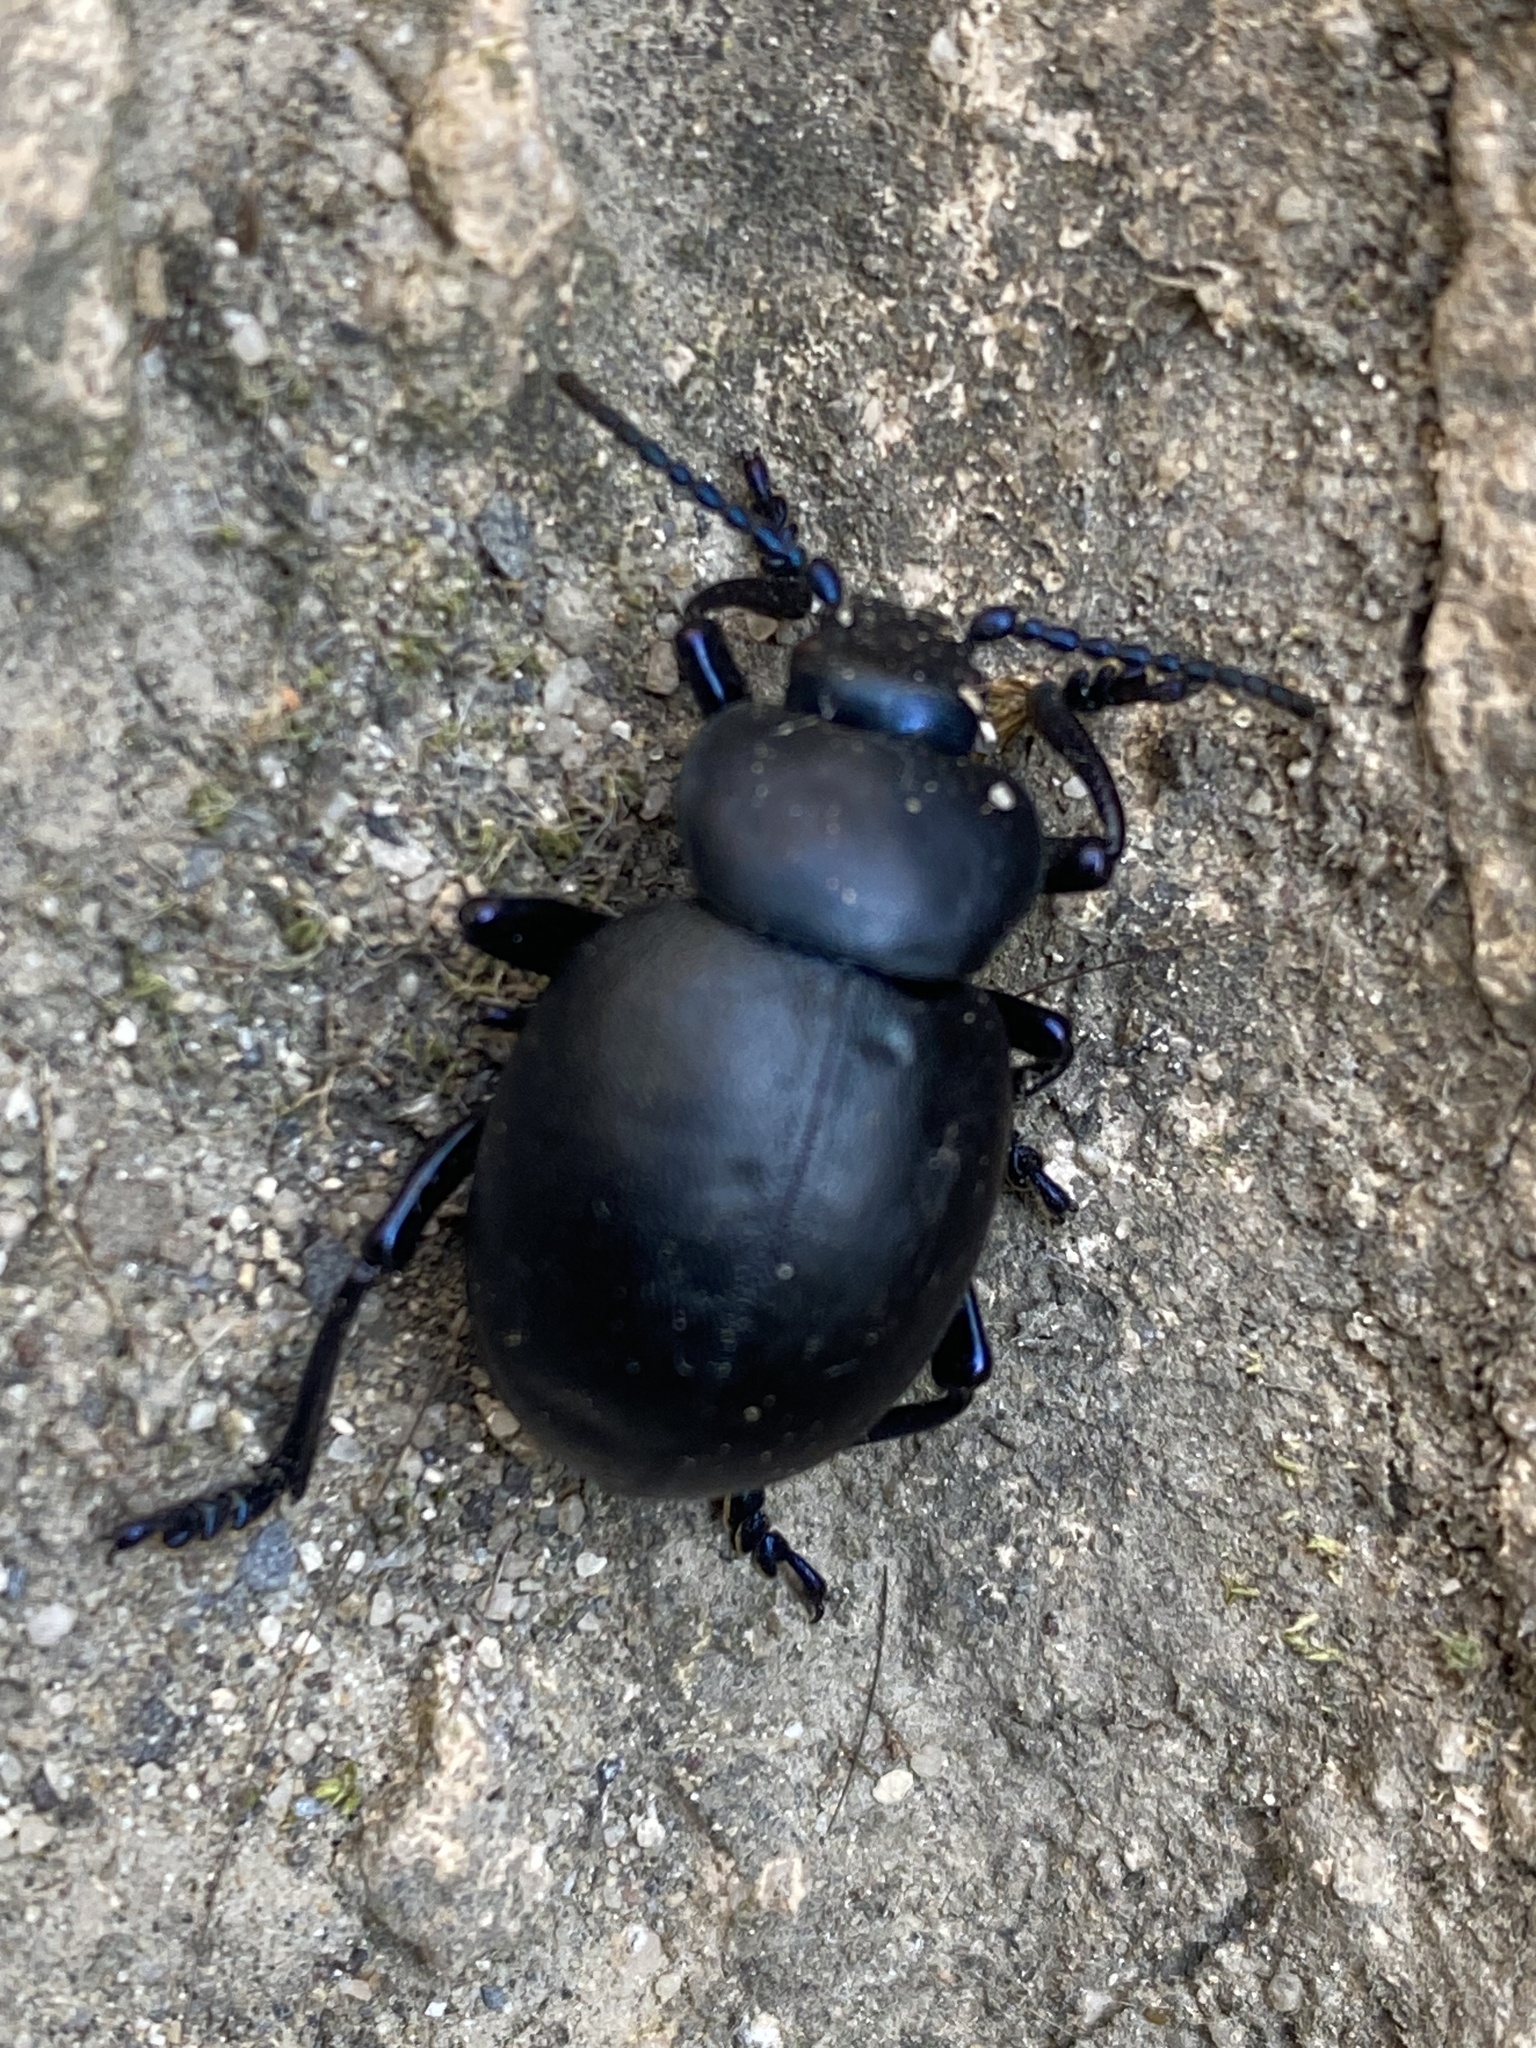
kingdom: Animalia
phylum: Arthropoda
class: Insecta
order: Coleoptera
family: Chrysomelidae
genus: Timarcha
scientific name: Timarcha tenebricosa
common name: Bloody-nosed beetle
